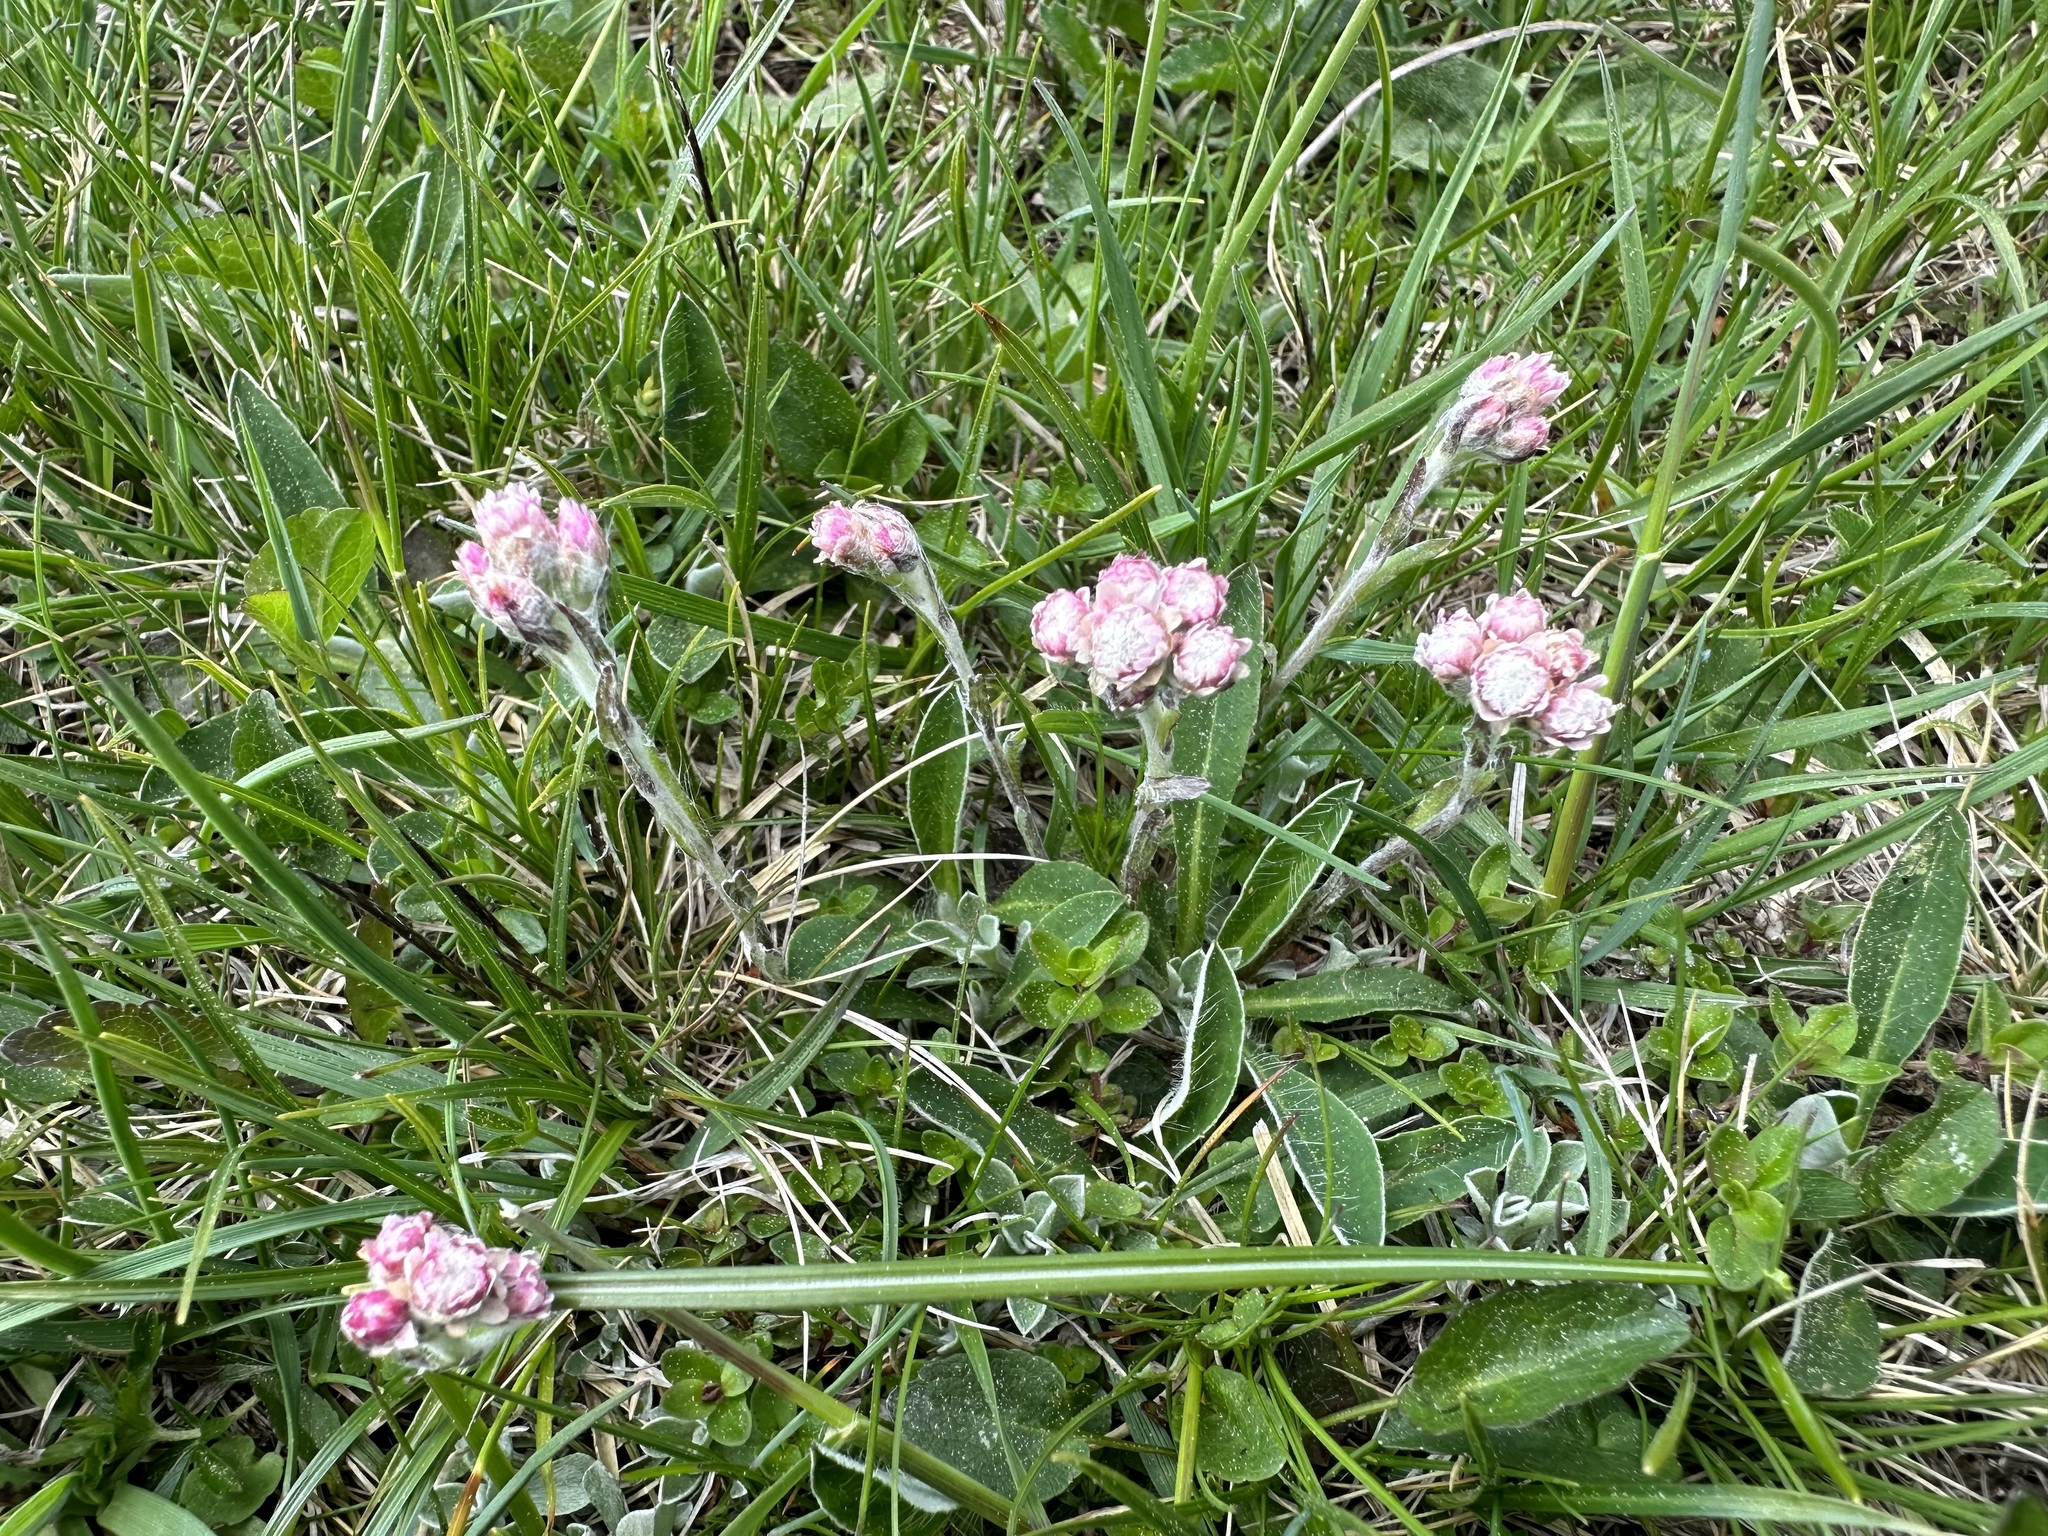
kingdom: Plantae
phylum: Tracheophyta
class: Magnoliopsida
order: Asterales
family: Asteraceae
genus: Antennaria
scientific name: Antennaria dioica
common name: Mountain everlasting
